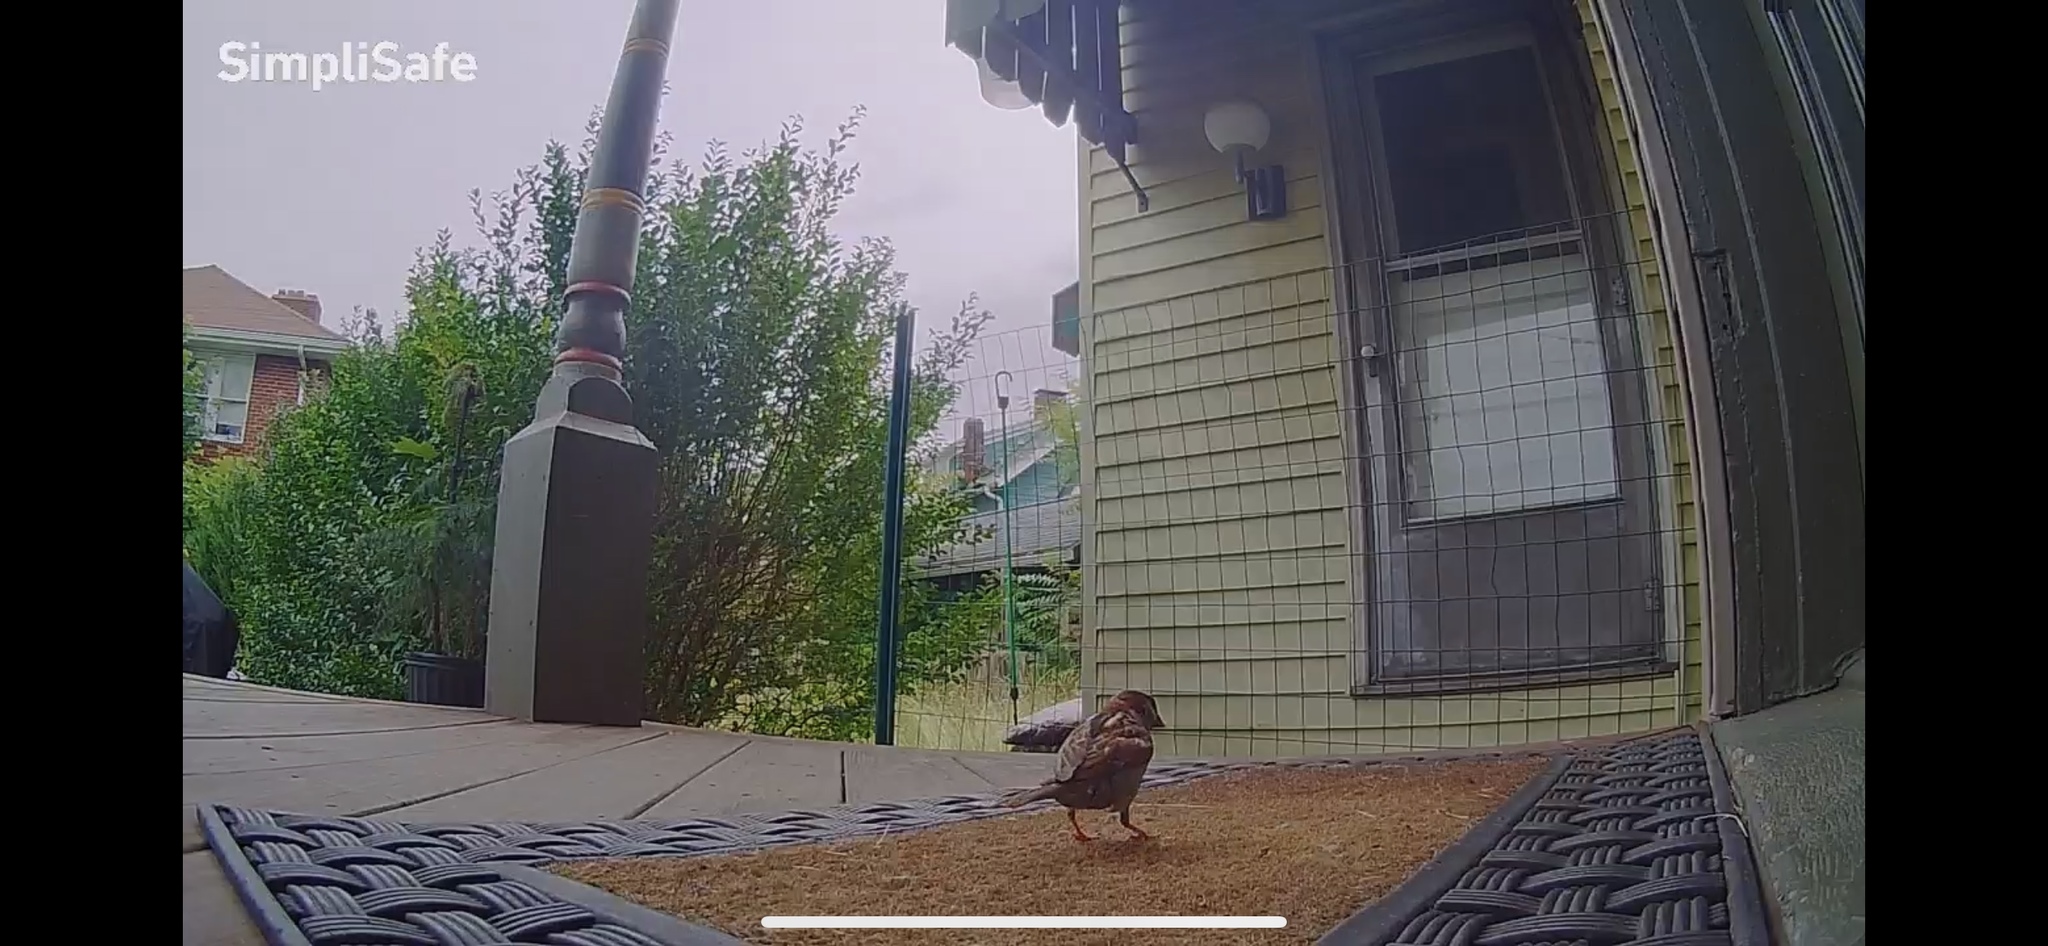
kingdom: Animalia
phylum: Chordata
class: Aves
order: Passeriformes
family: Passeridae
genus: Passer
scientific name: Passer domesticus
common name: House sparrow
